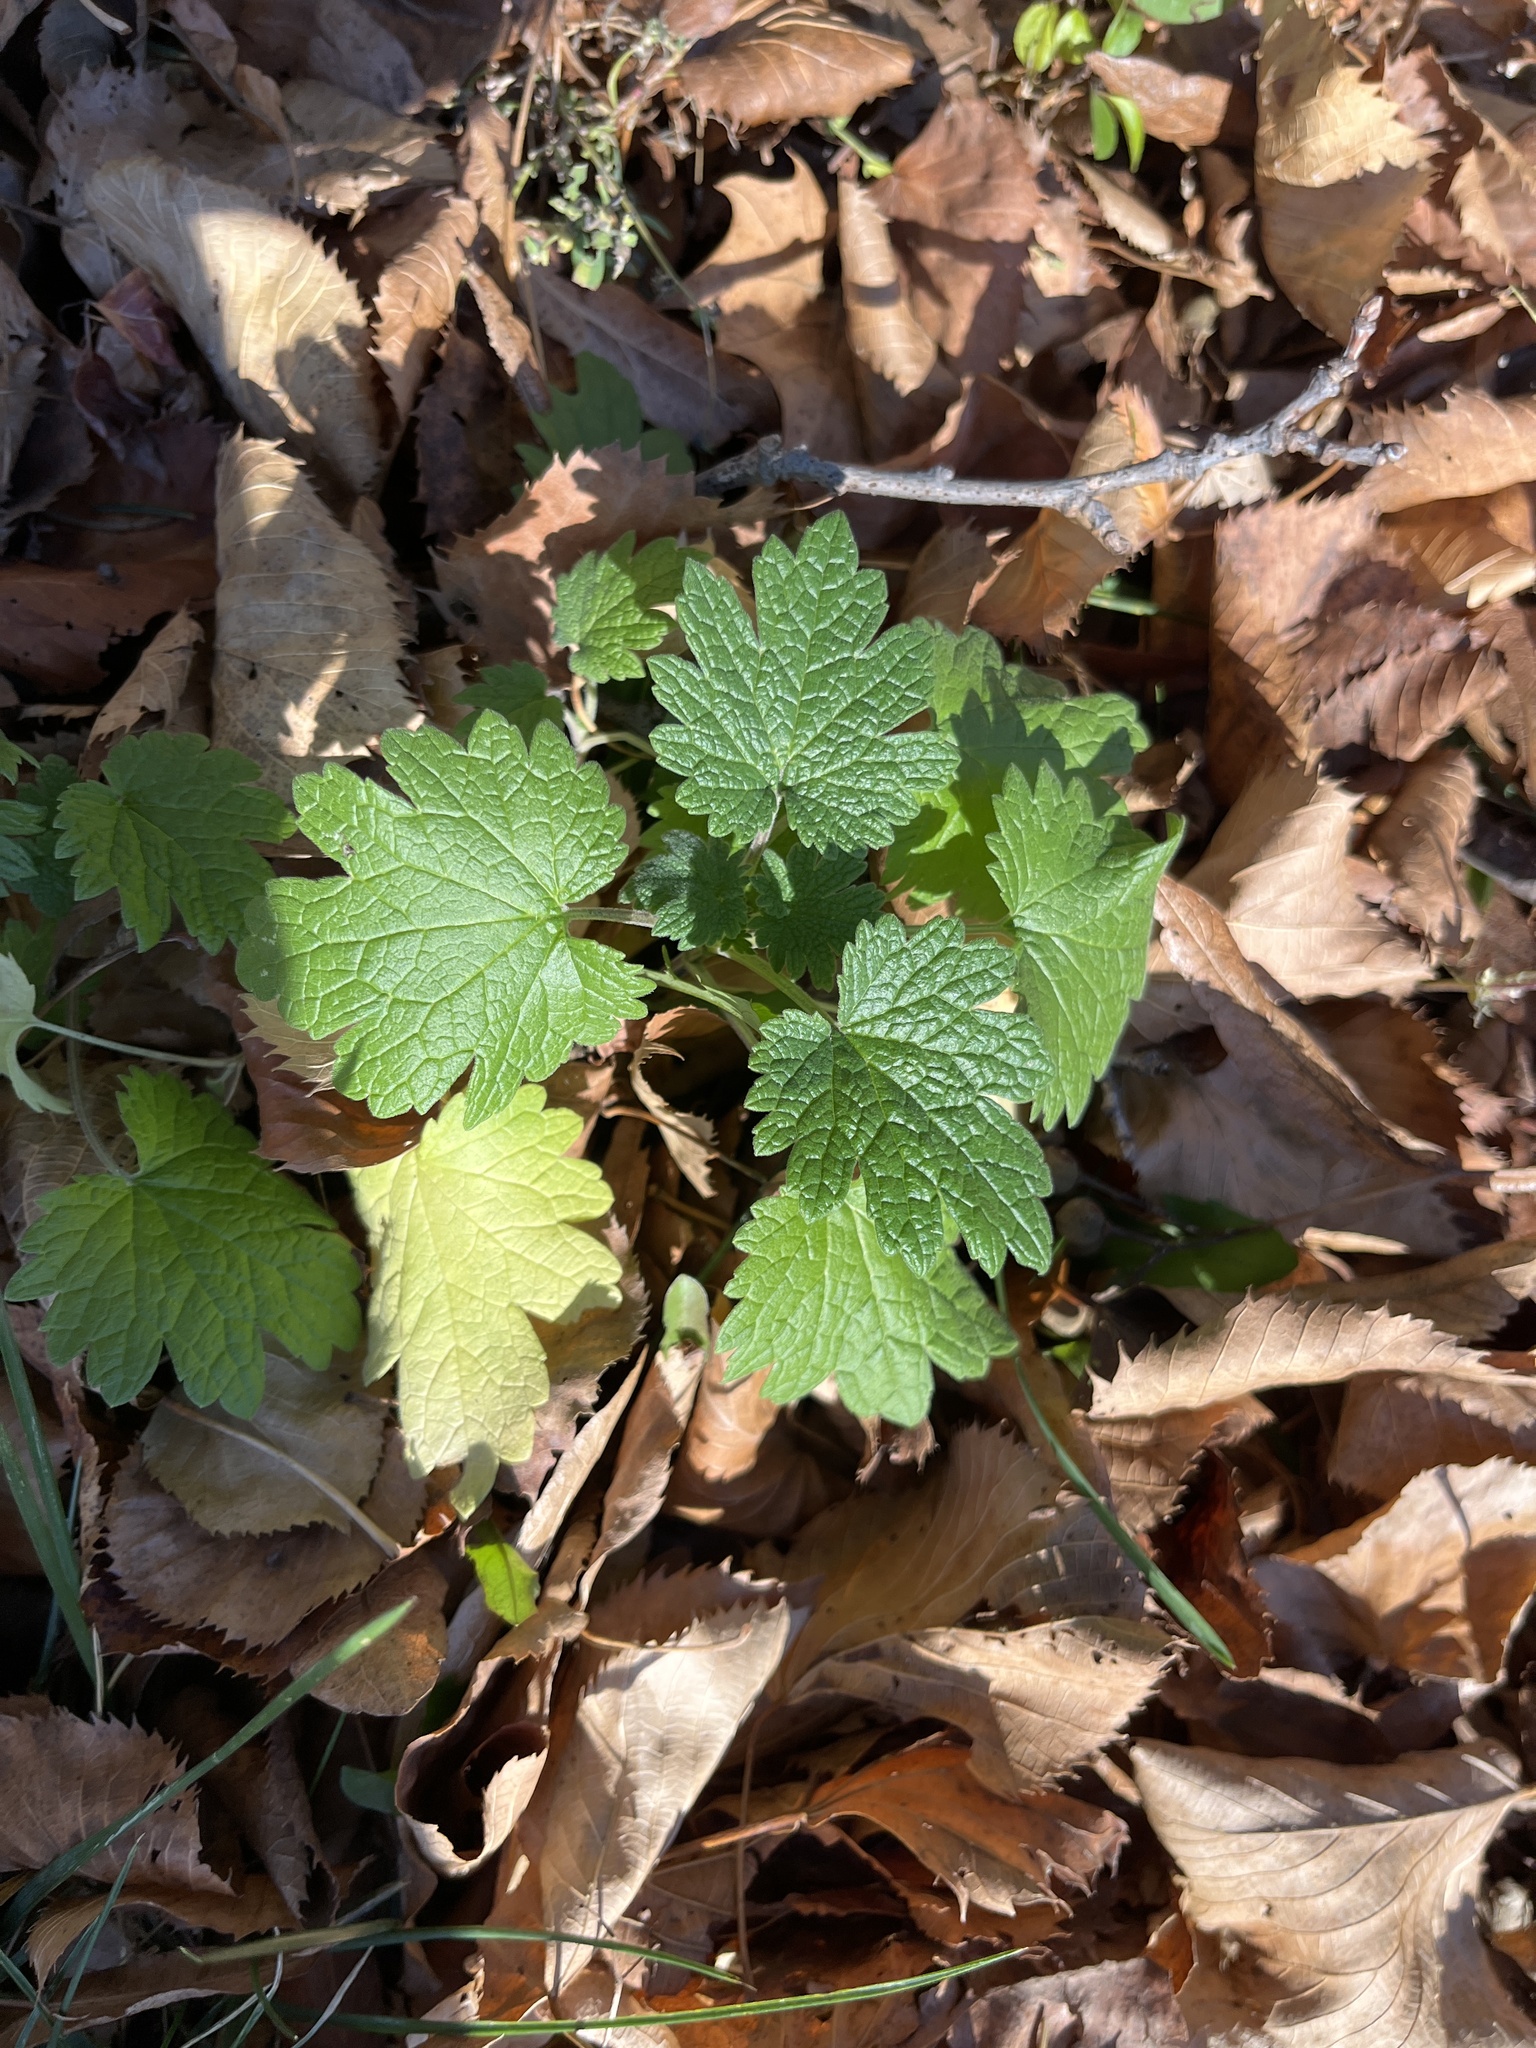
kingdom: Plantae
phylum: Tracheophyta
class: Magnoliopsida
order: Lamiales
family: Lamiaceae
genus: Leonurus
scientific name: Leonurus cardiaca
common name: Motherwort
